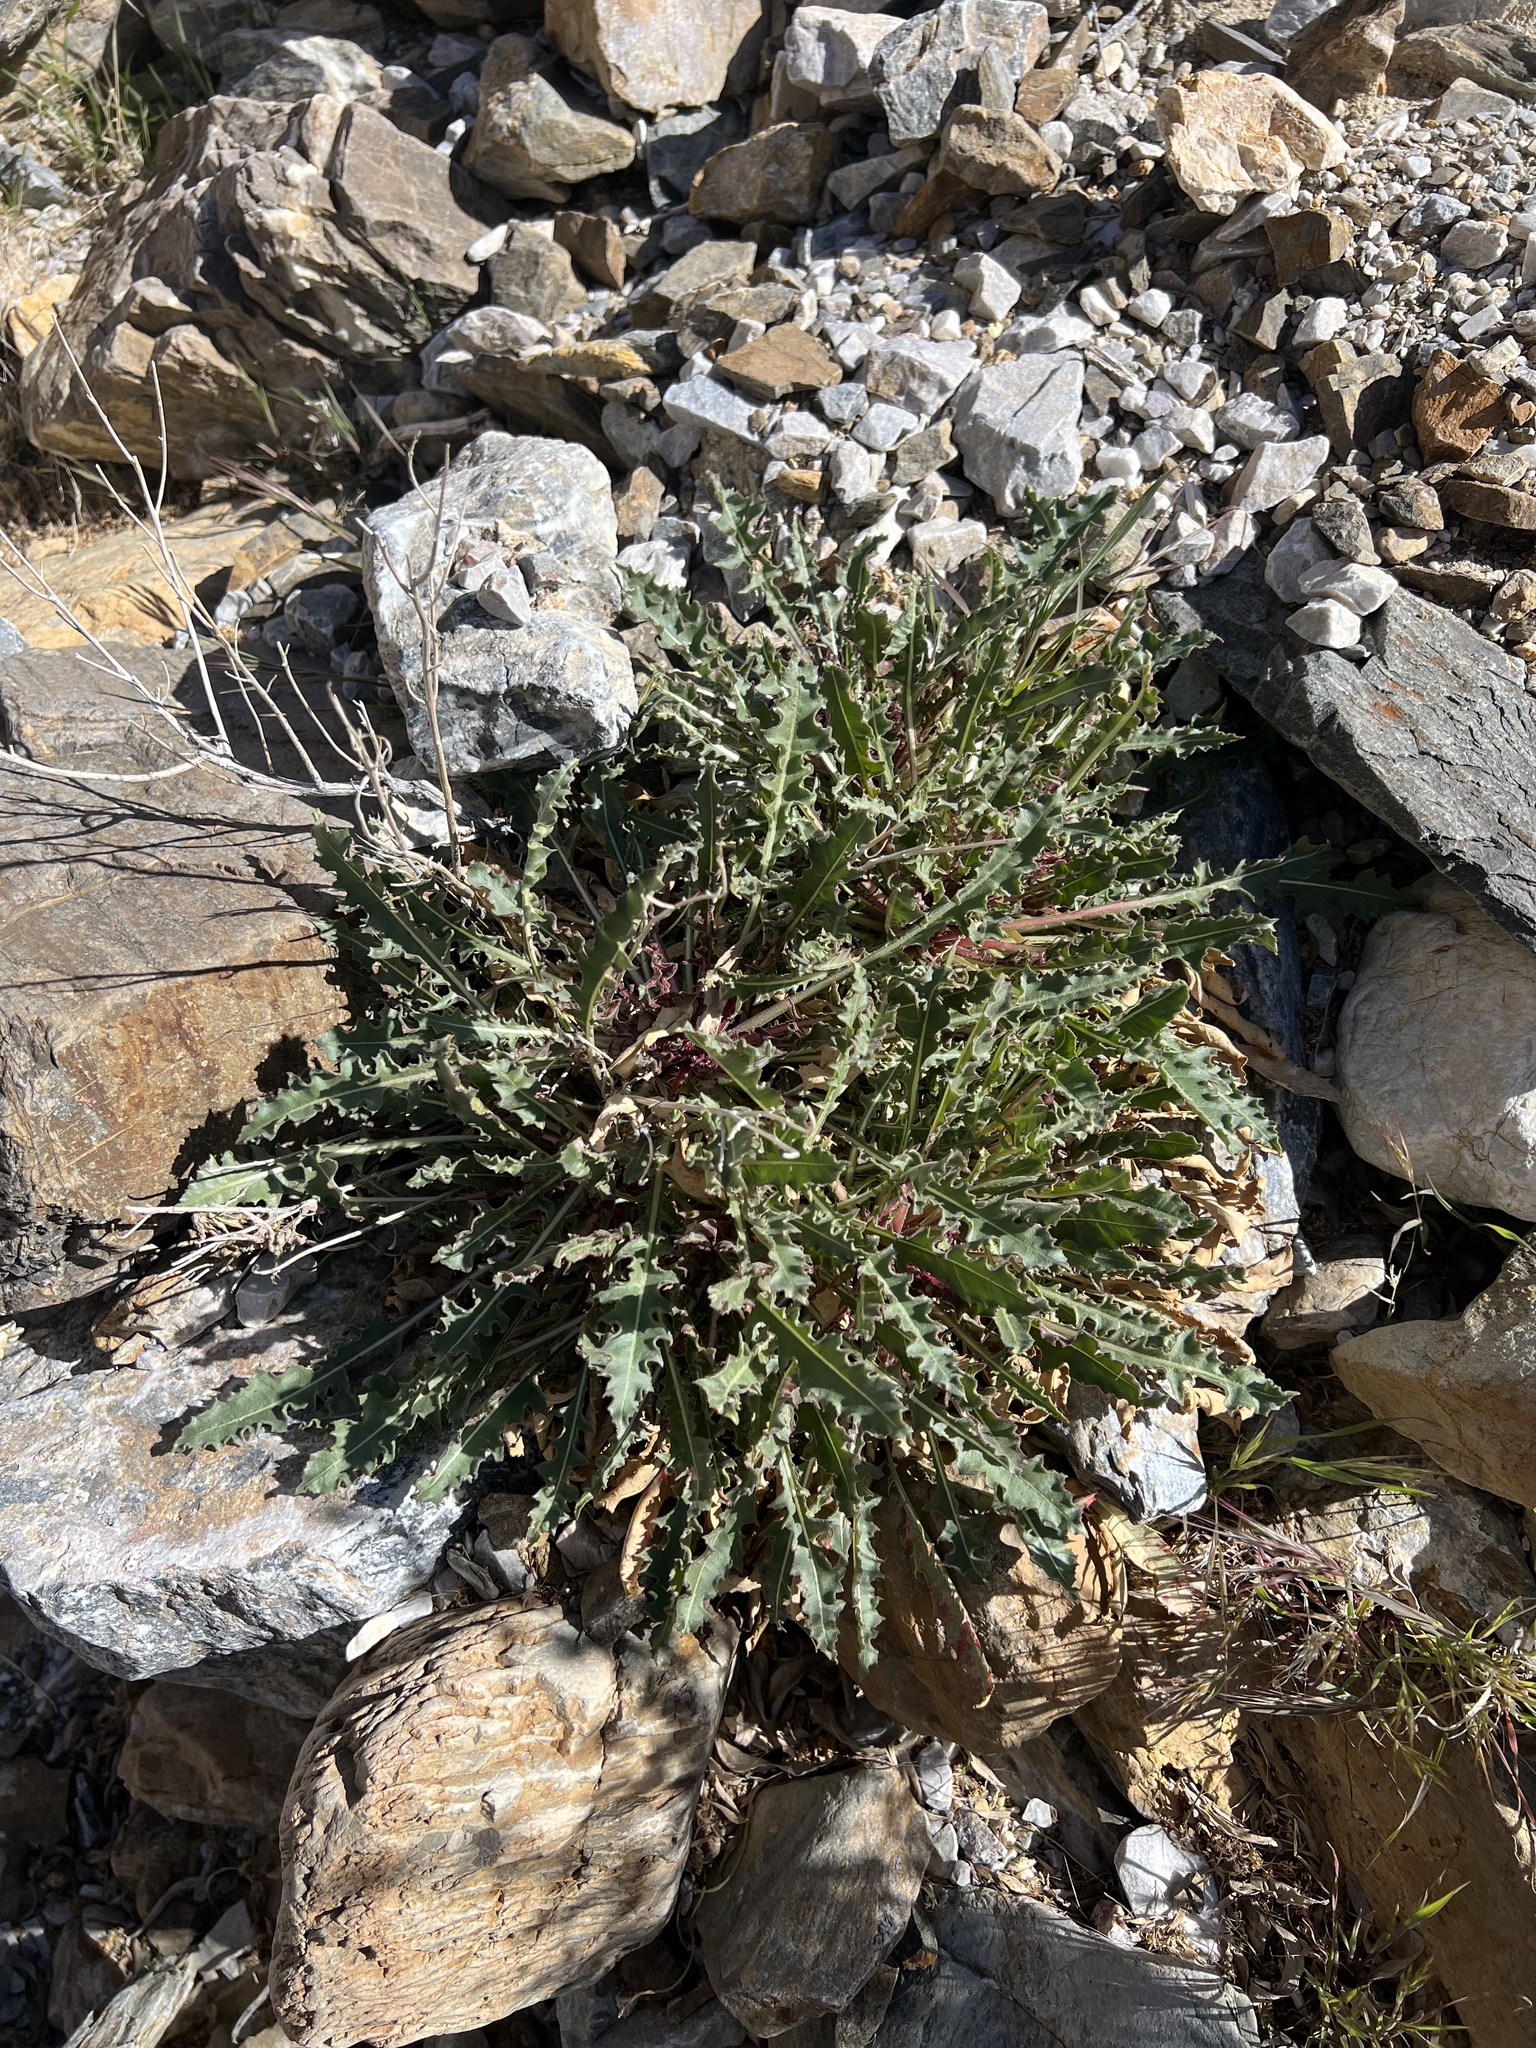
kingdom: Plantae
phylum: Tracheophyta
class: Magnoliopsida
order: Myrtales
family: Onagraceae
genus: Oenothera
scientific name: Oenothera cespitosa
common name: Tufted evening-primrose
